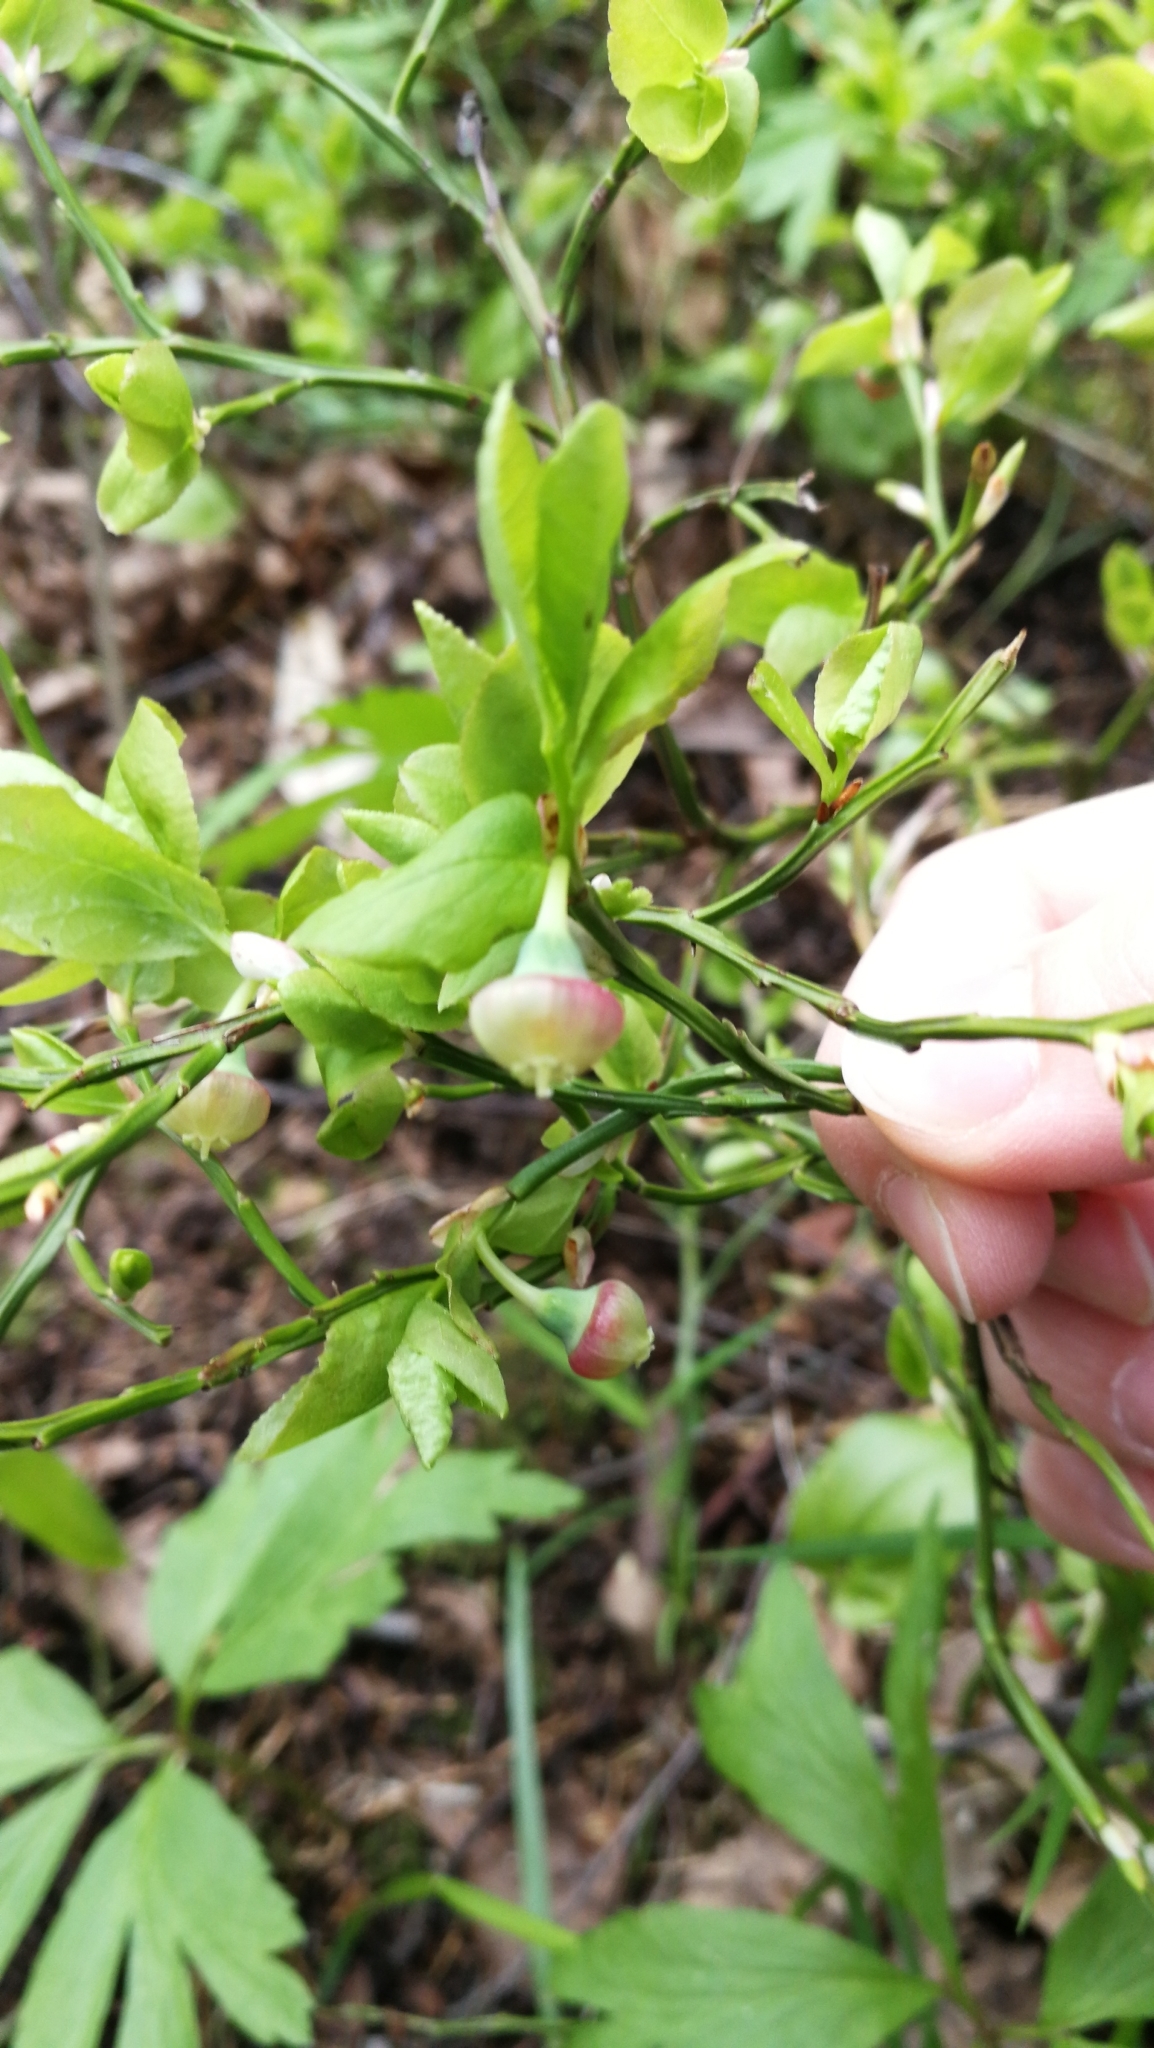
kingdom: Plantae
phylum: Tracheophyta
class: Magnoliopsida
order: Ericales
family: Ericaceae
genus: Vaccinium
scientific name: Vaccinium myrtillus
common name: Bilberry
